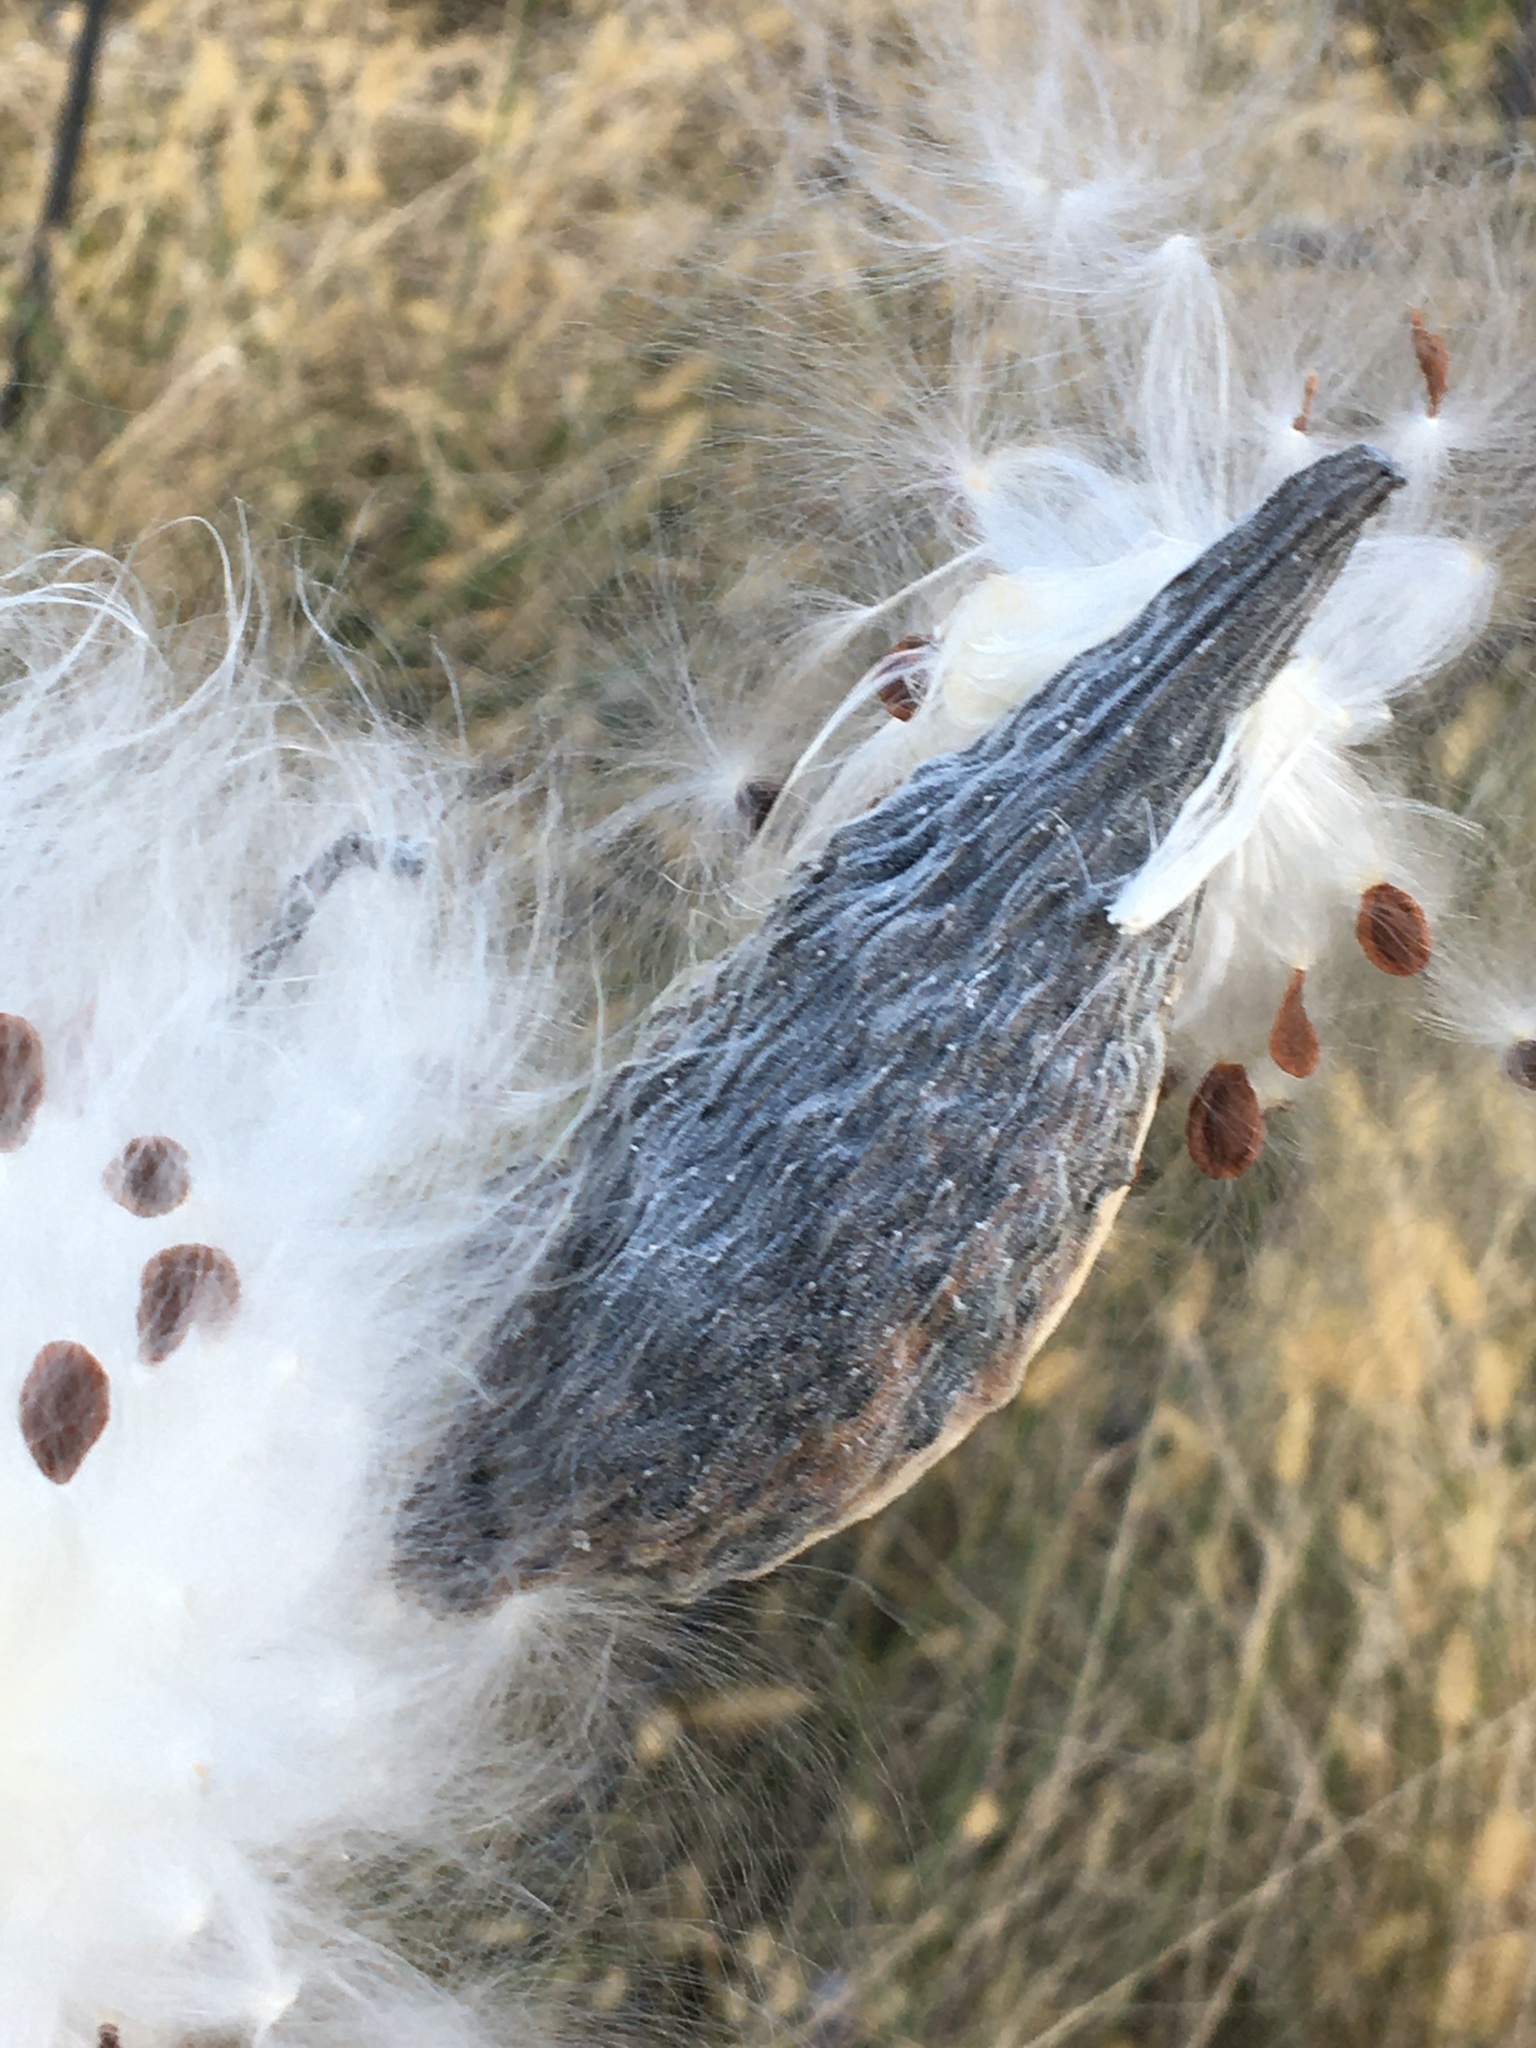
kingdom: Plantae
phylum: Tracheophyta
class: Magnoliopsida
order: Gentianales
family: Apocynaceae
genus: Asclepias
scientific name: Asclepias syriaca
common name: Common milkweed
